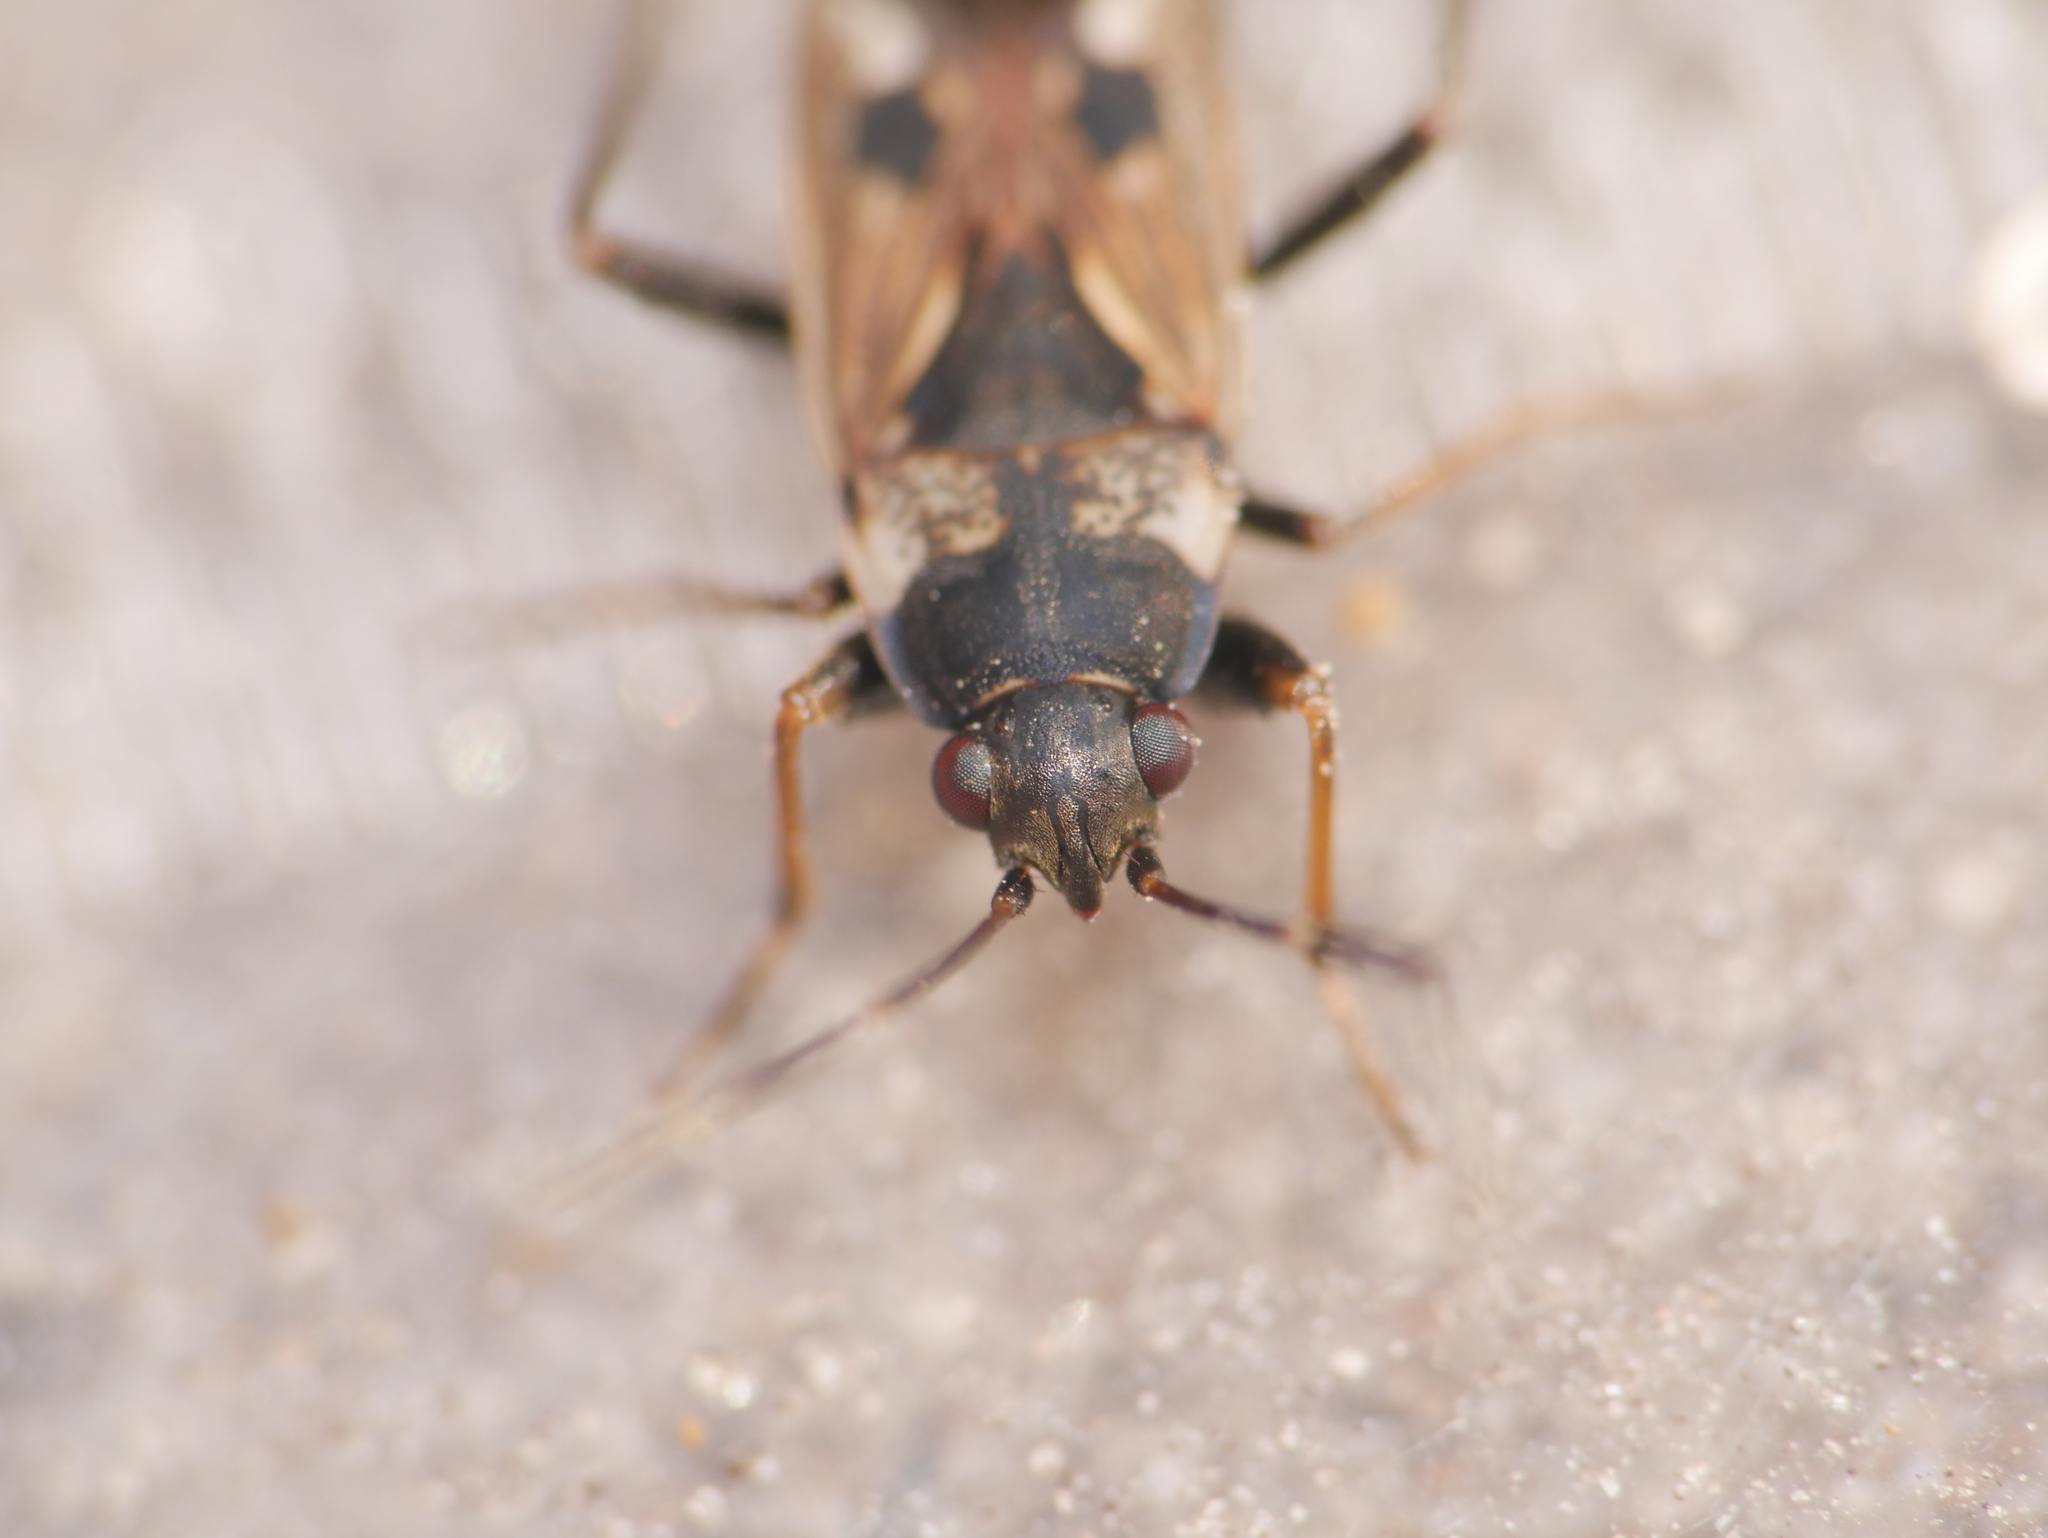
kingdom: Animalia
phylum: Arthropoda
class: Insecta
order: Hemiptera
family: Rhyparochromidae
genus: Rhyparochromus
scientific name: Rhyparochromus vulgaris
